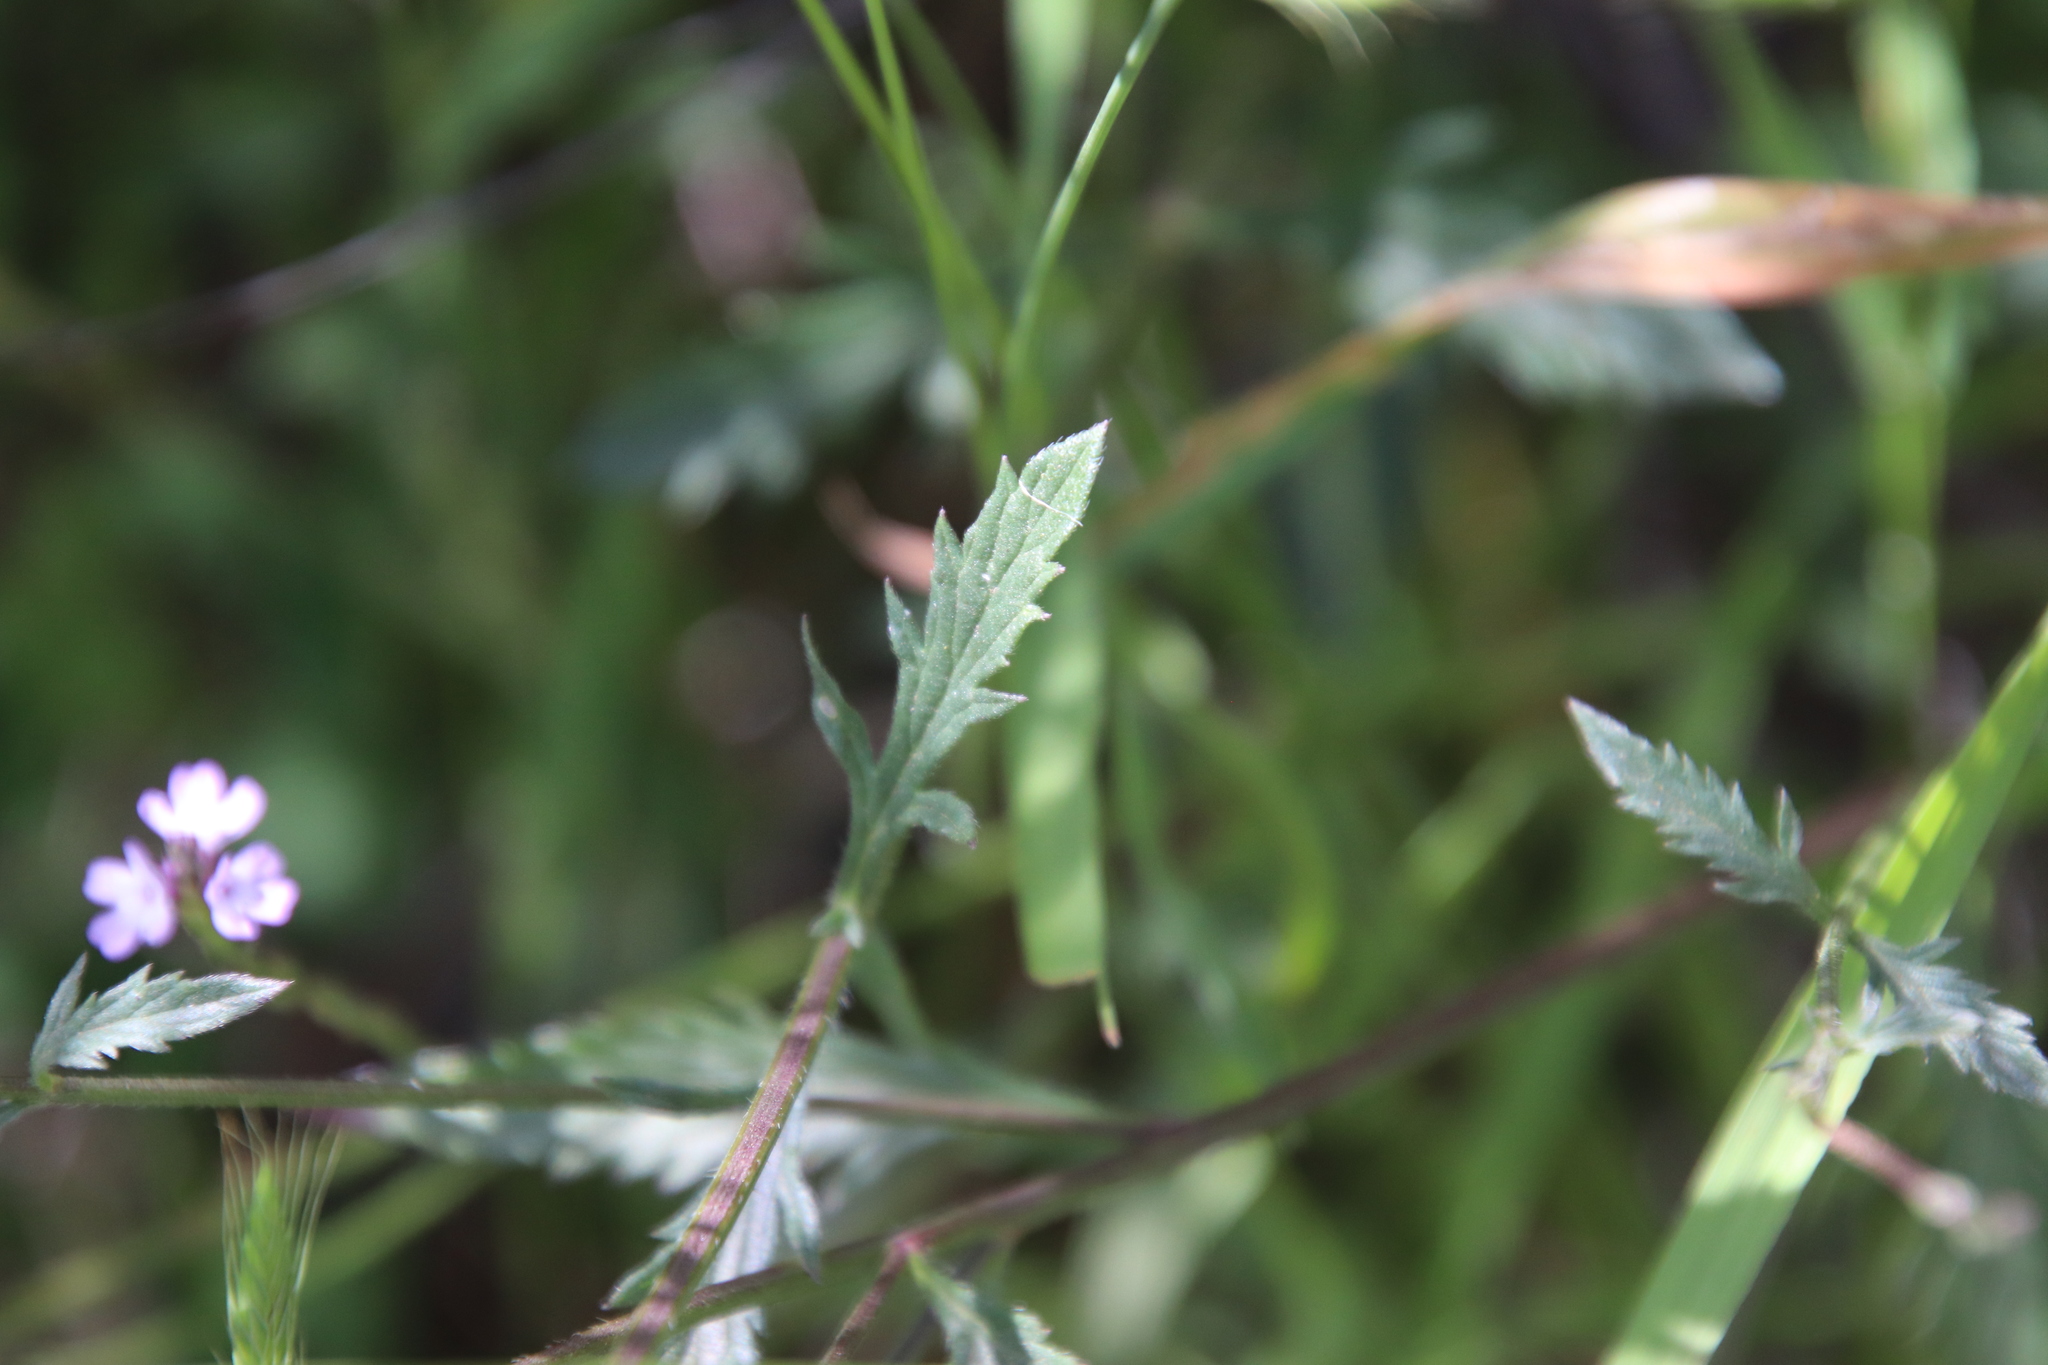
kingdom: Plantae
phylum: Tracheophyta
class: Magnoliopsida
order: Lamiales
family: Verbenaceae
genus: Verbena
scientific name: Verbena menthifolia
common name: Mint-leaf vervain
